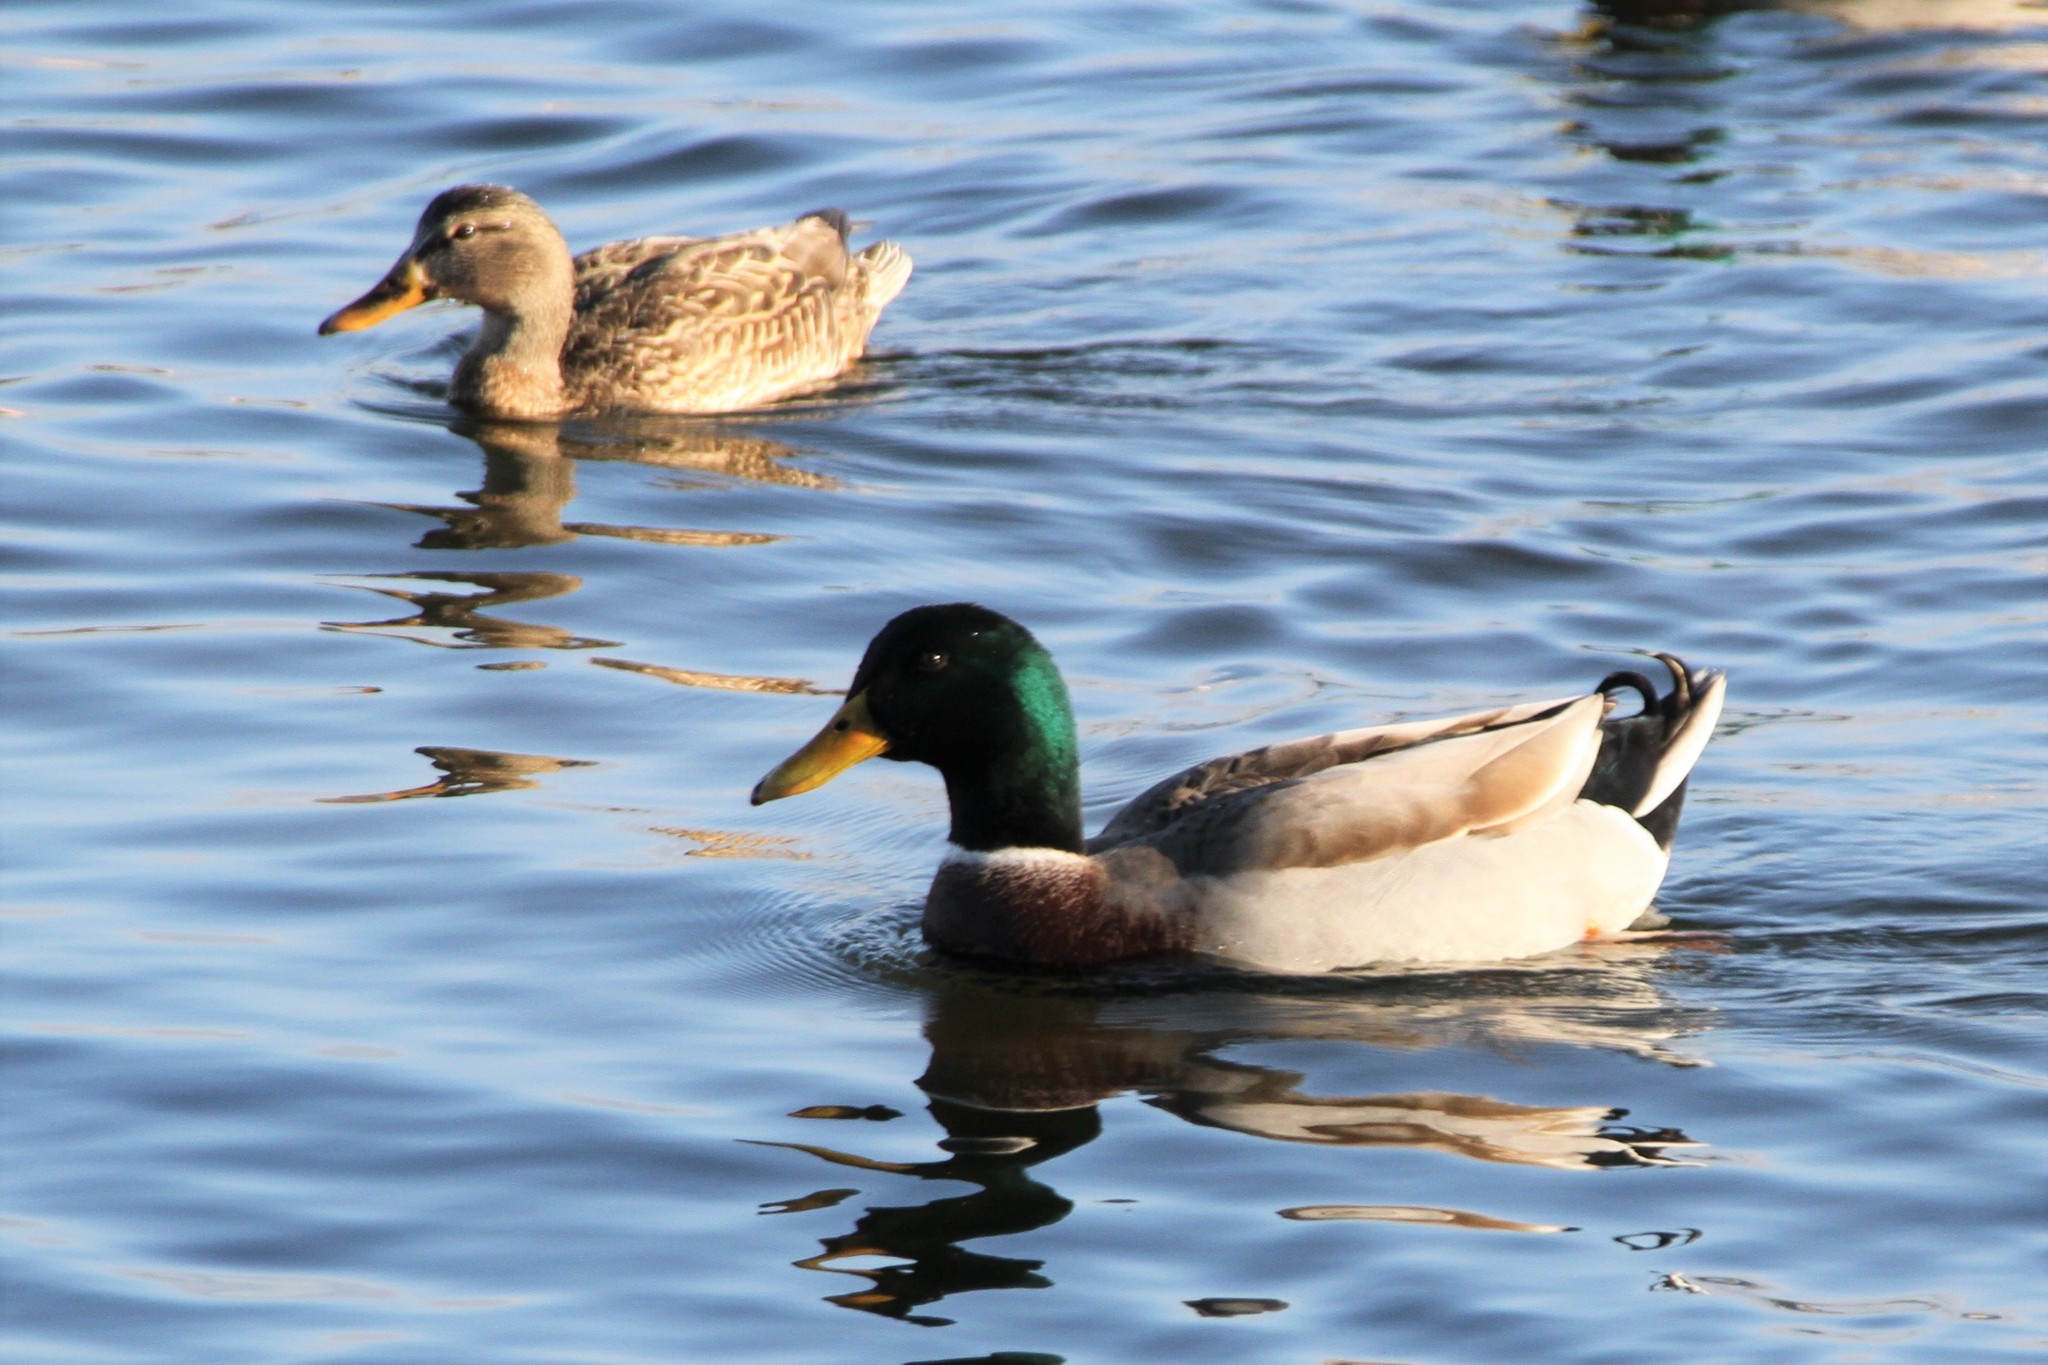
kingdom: Animalia
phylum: Chordata
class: Aves
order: Anseriformes
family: Anatidae
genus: Anas
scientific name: Anas platyrhynchos
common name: Mallard
